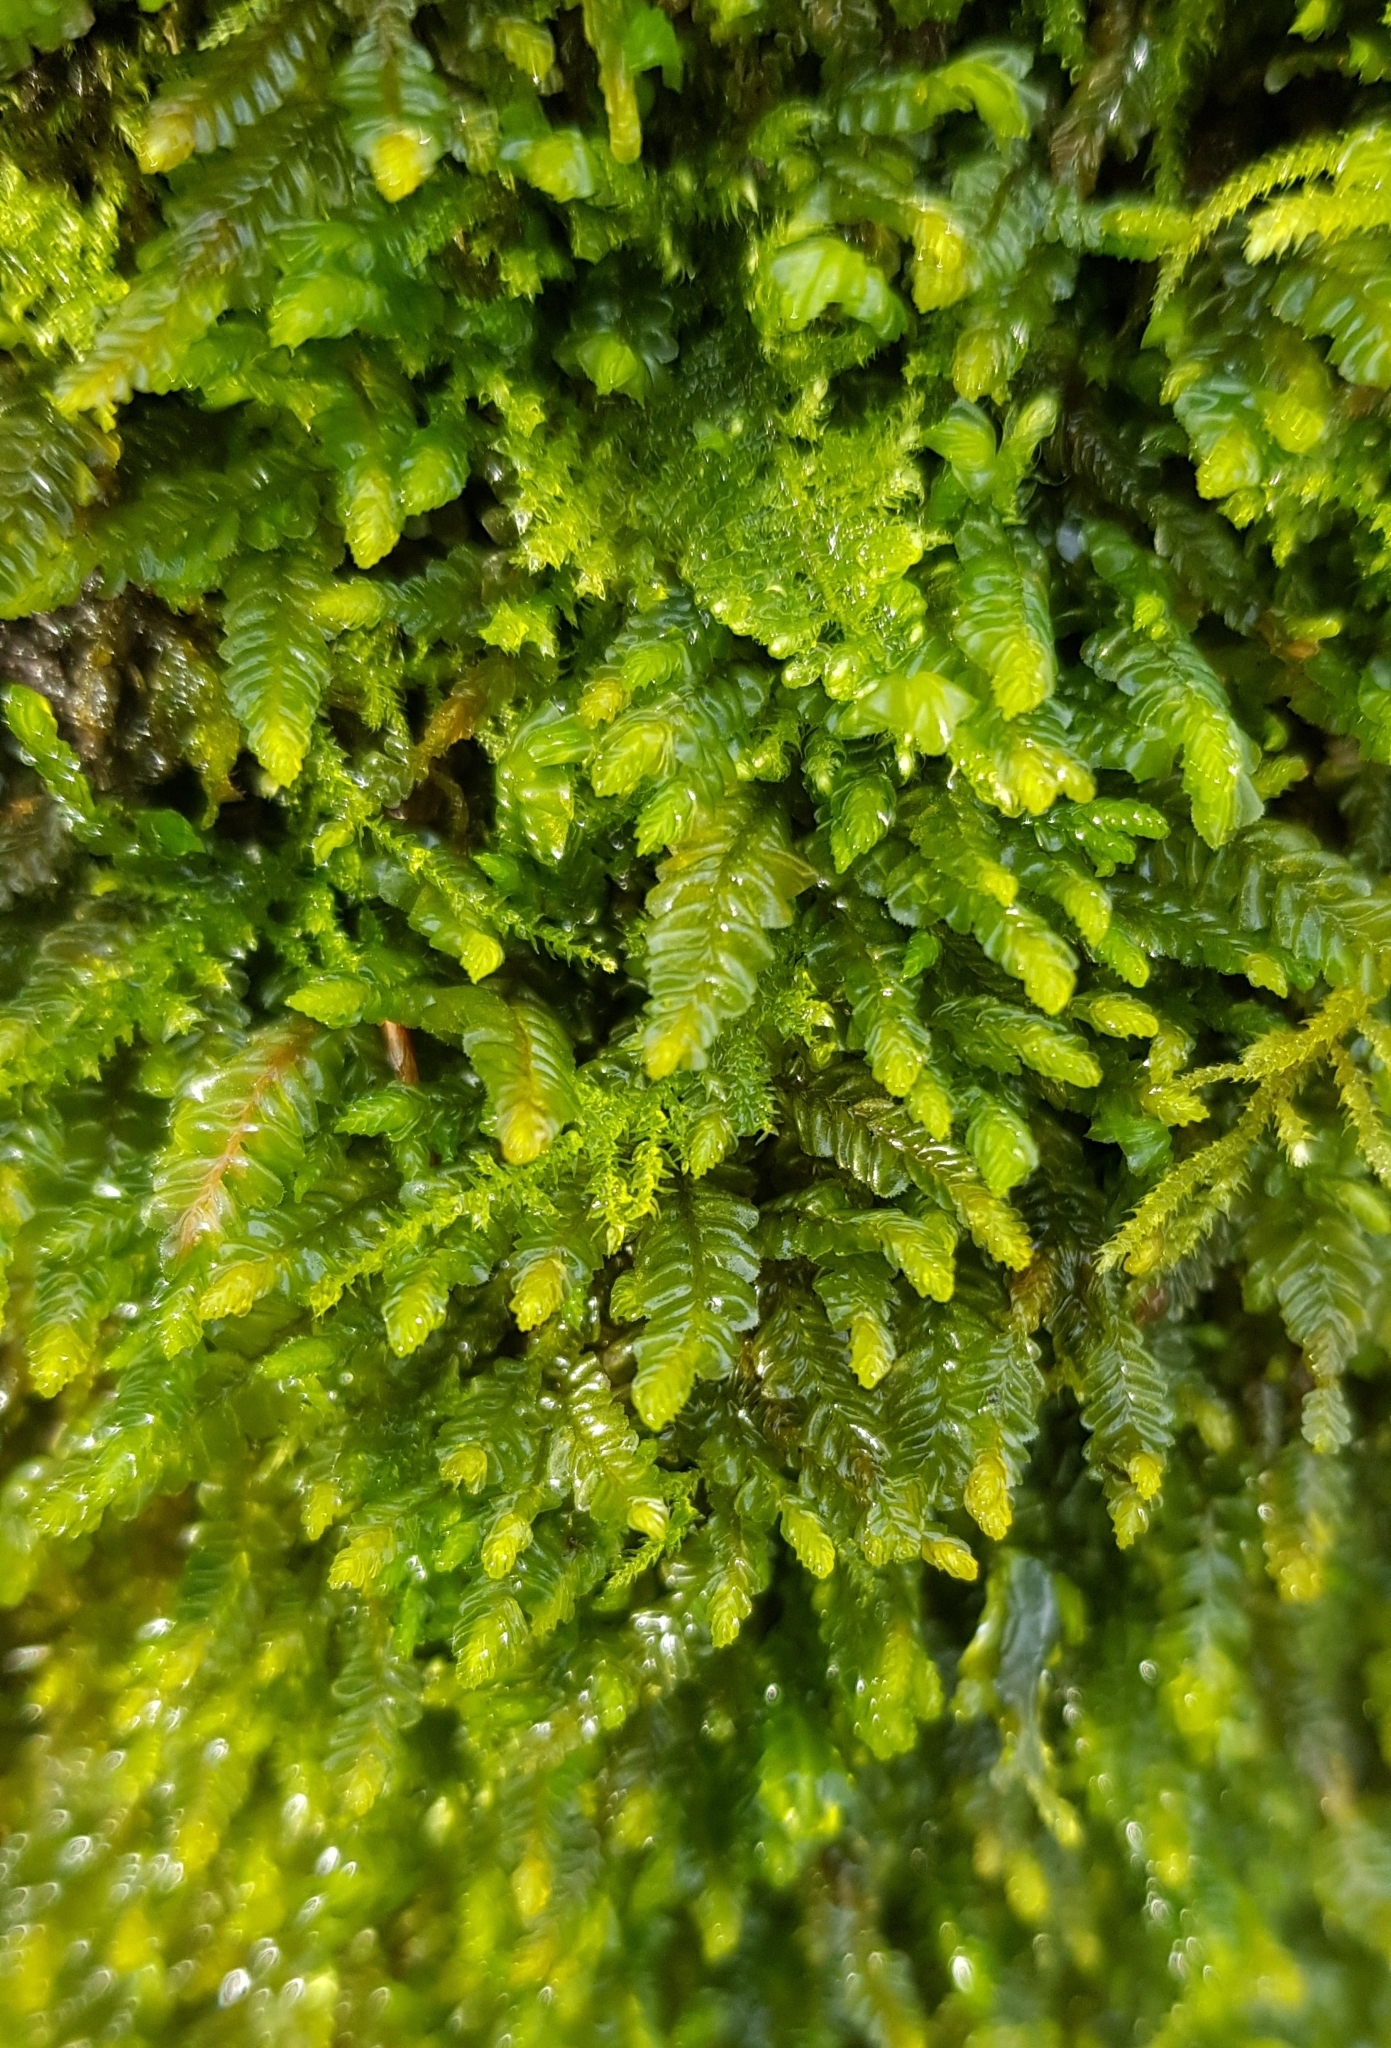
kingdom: Plantae
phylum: Marchantiophyta
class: Jungermanniopsida
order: Jungermanniales
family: Plagiochilaceae
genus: Plagiochila
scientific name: Plagiochila porelloides
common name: Lesser featherwort
